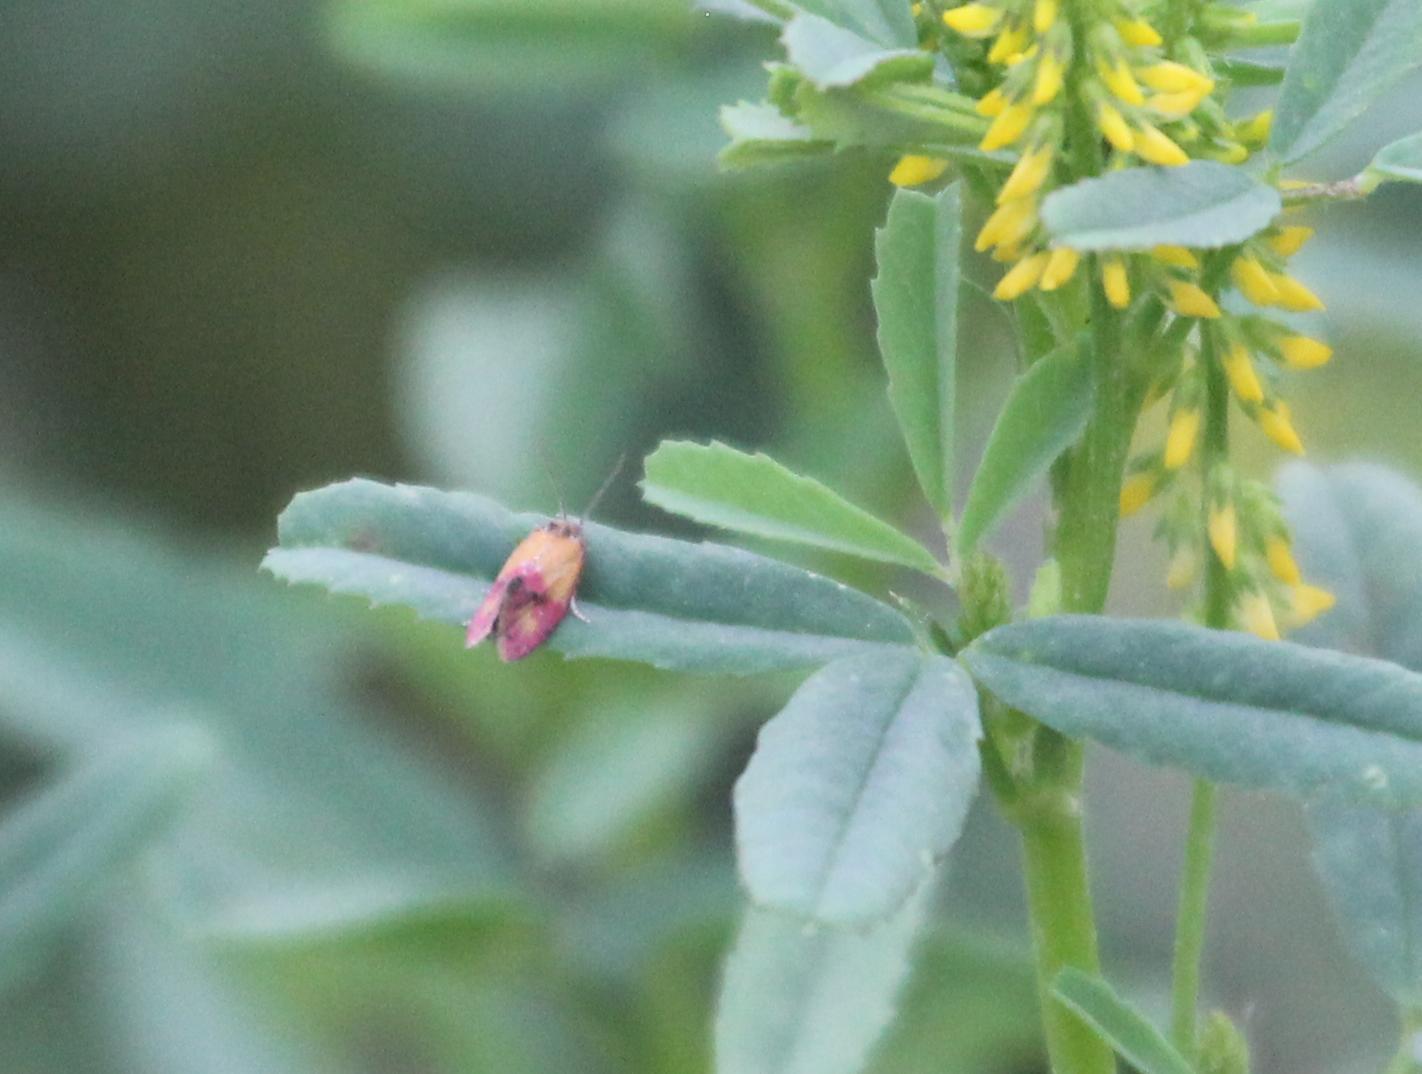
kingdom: Animalia
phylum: Arthropoda
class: Insecta
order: Lepidoptera
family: Tortricidae
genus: Conchylis
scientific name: Conchylis oenotherana
